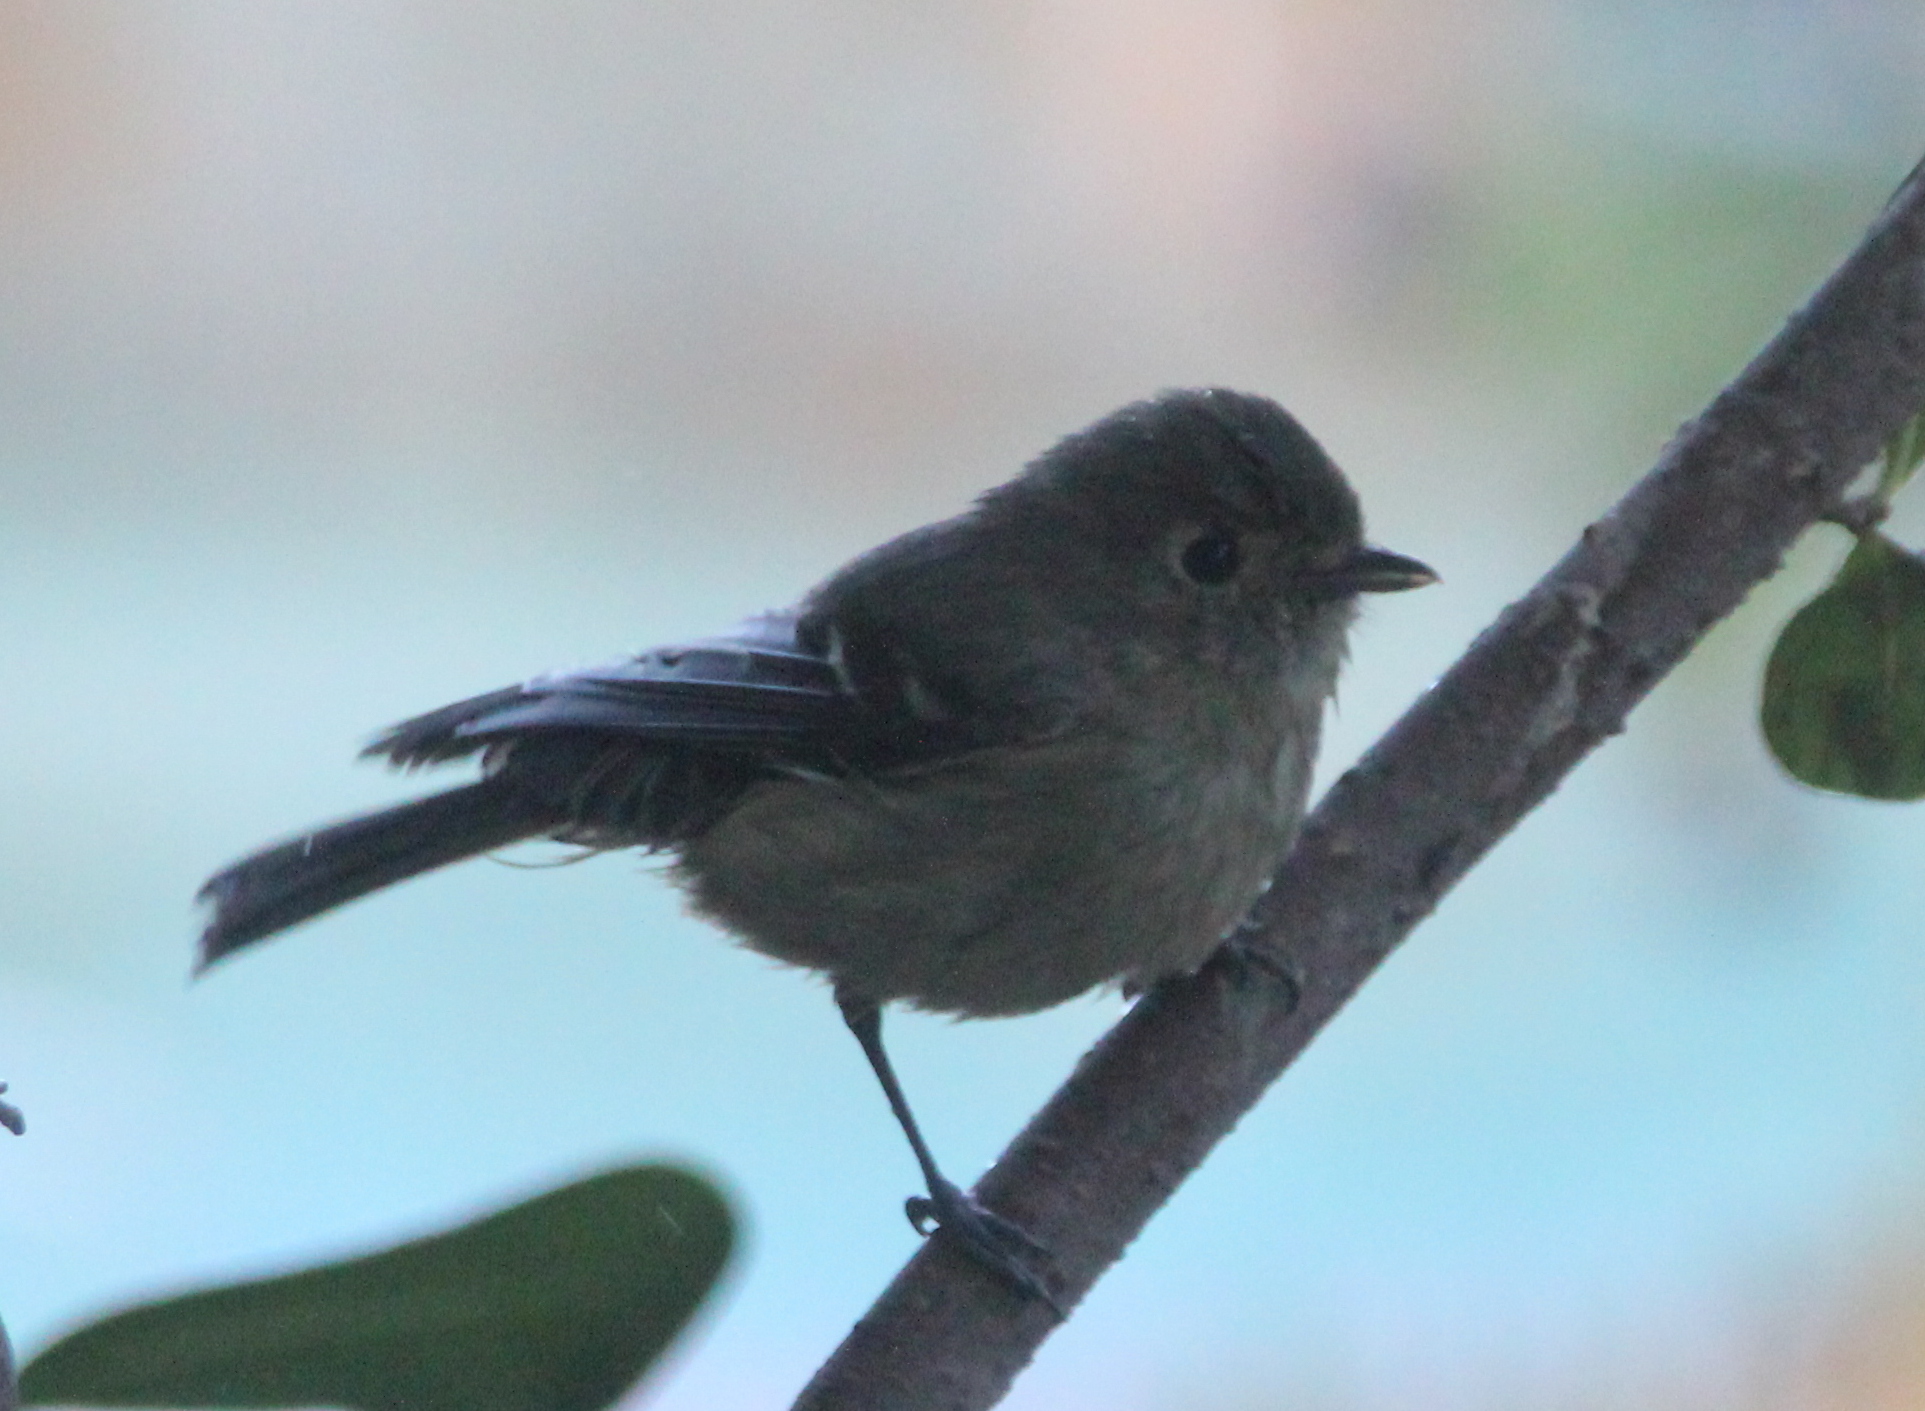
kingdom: Animalia
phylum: Chordata
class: Aves
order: Passeriformes
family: Vireonidae
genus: Vireo
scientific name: Vireo huttoni
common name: Hutton's vireo
